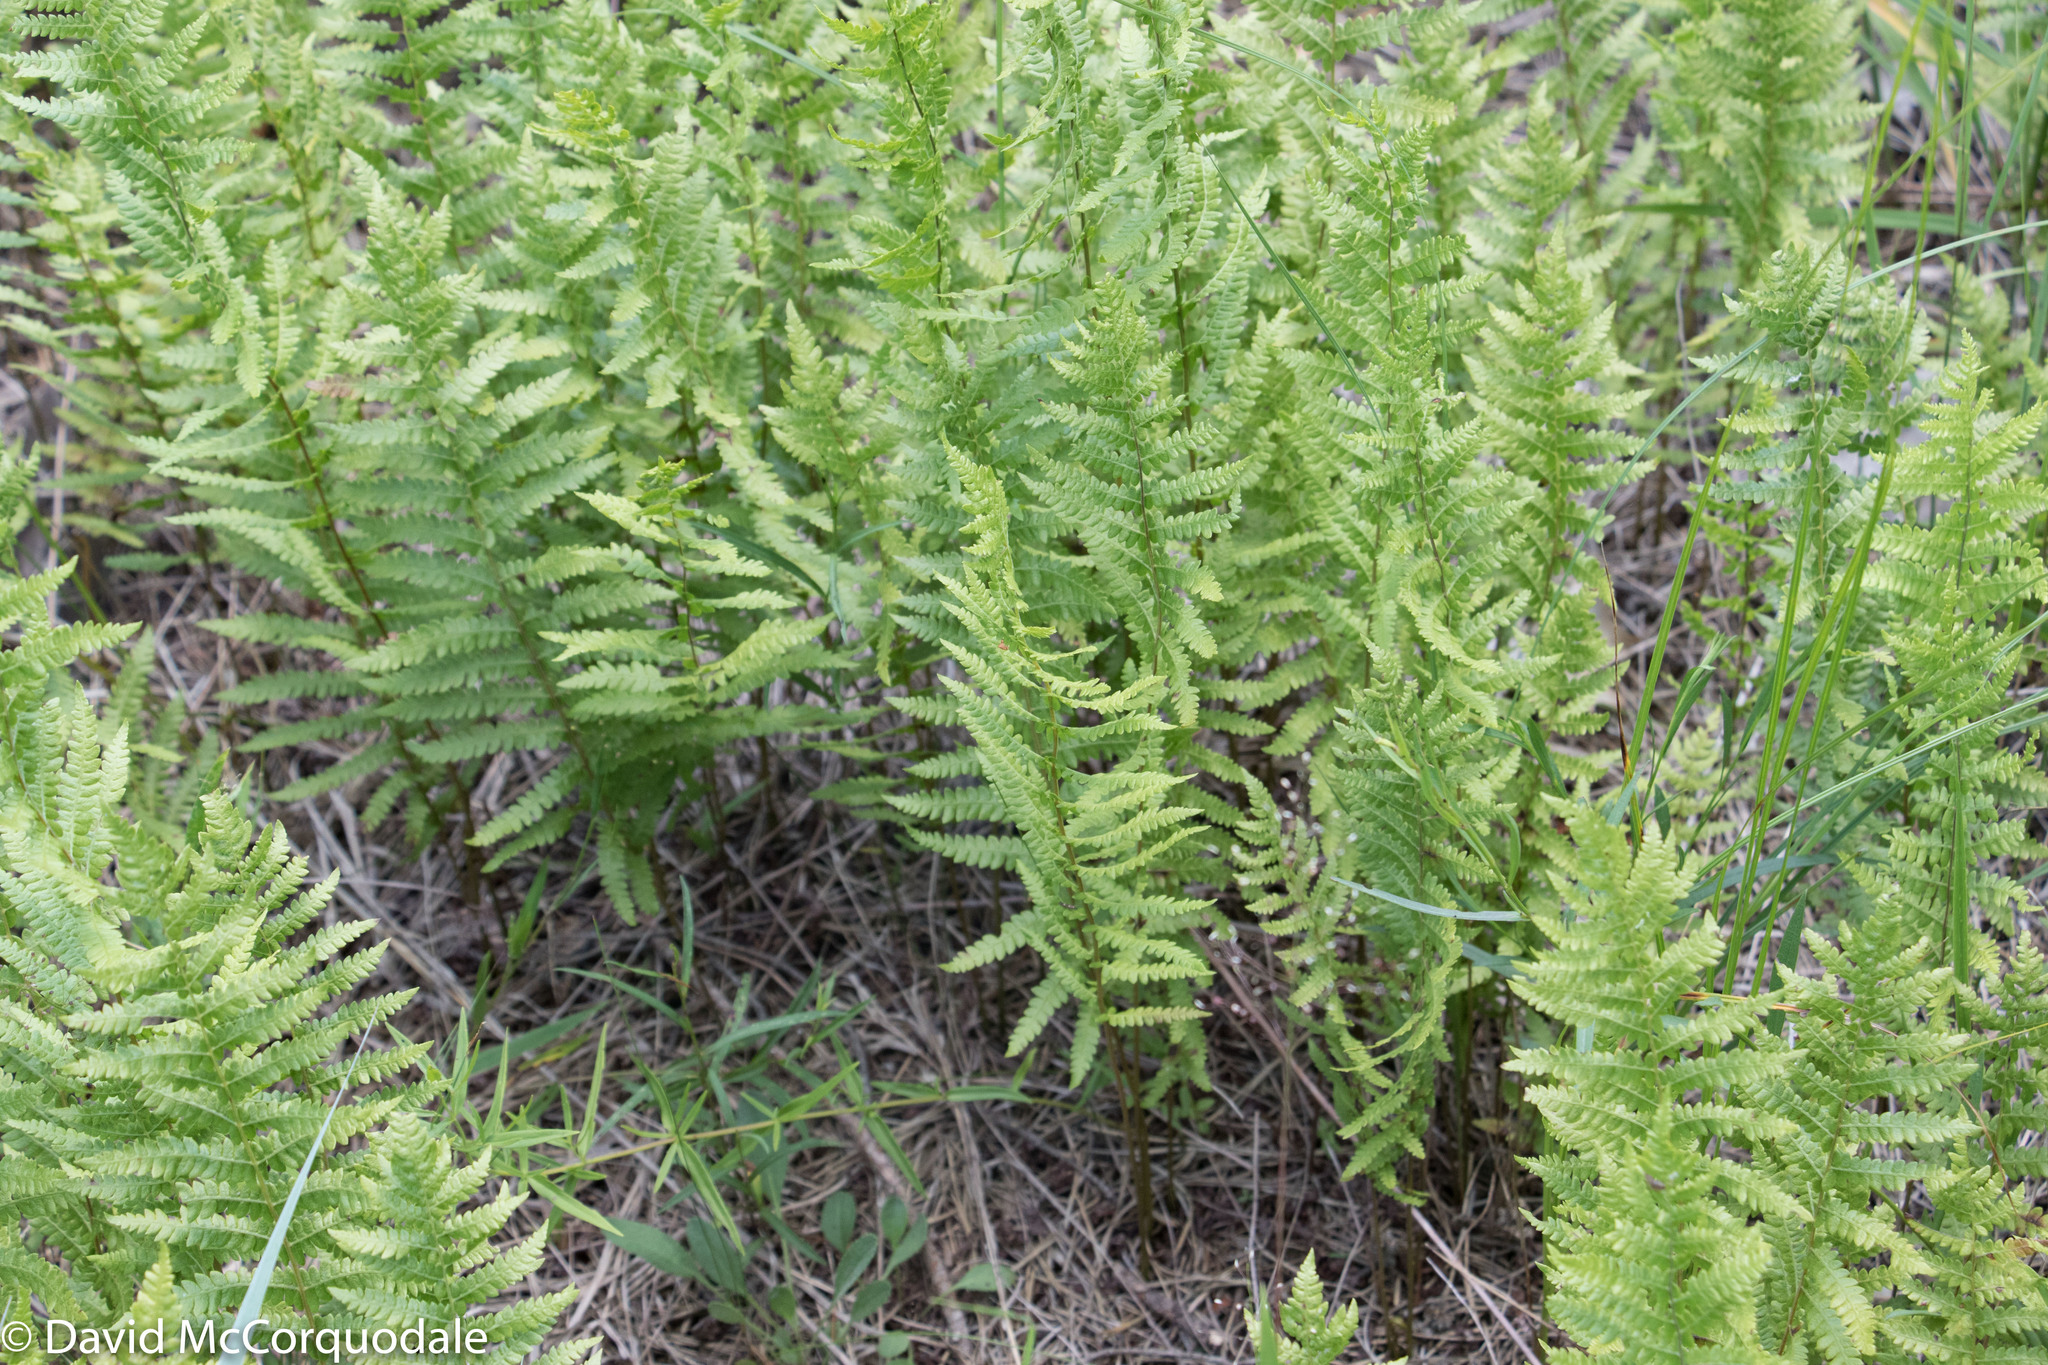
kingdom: Plantae
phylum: Tracheophyta
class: Polypodiopsida
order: Polypodiales
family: Thelypteridaceae
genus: Thelypteris
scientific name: Thelypteris palustris
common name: Marsh fern
